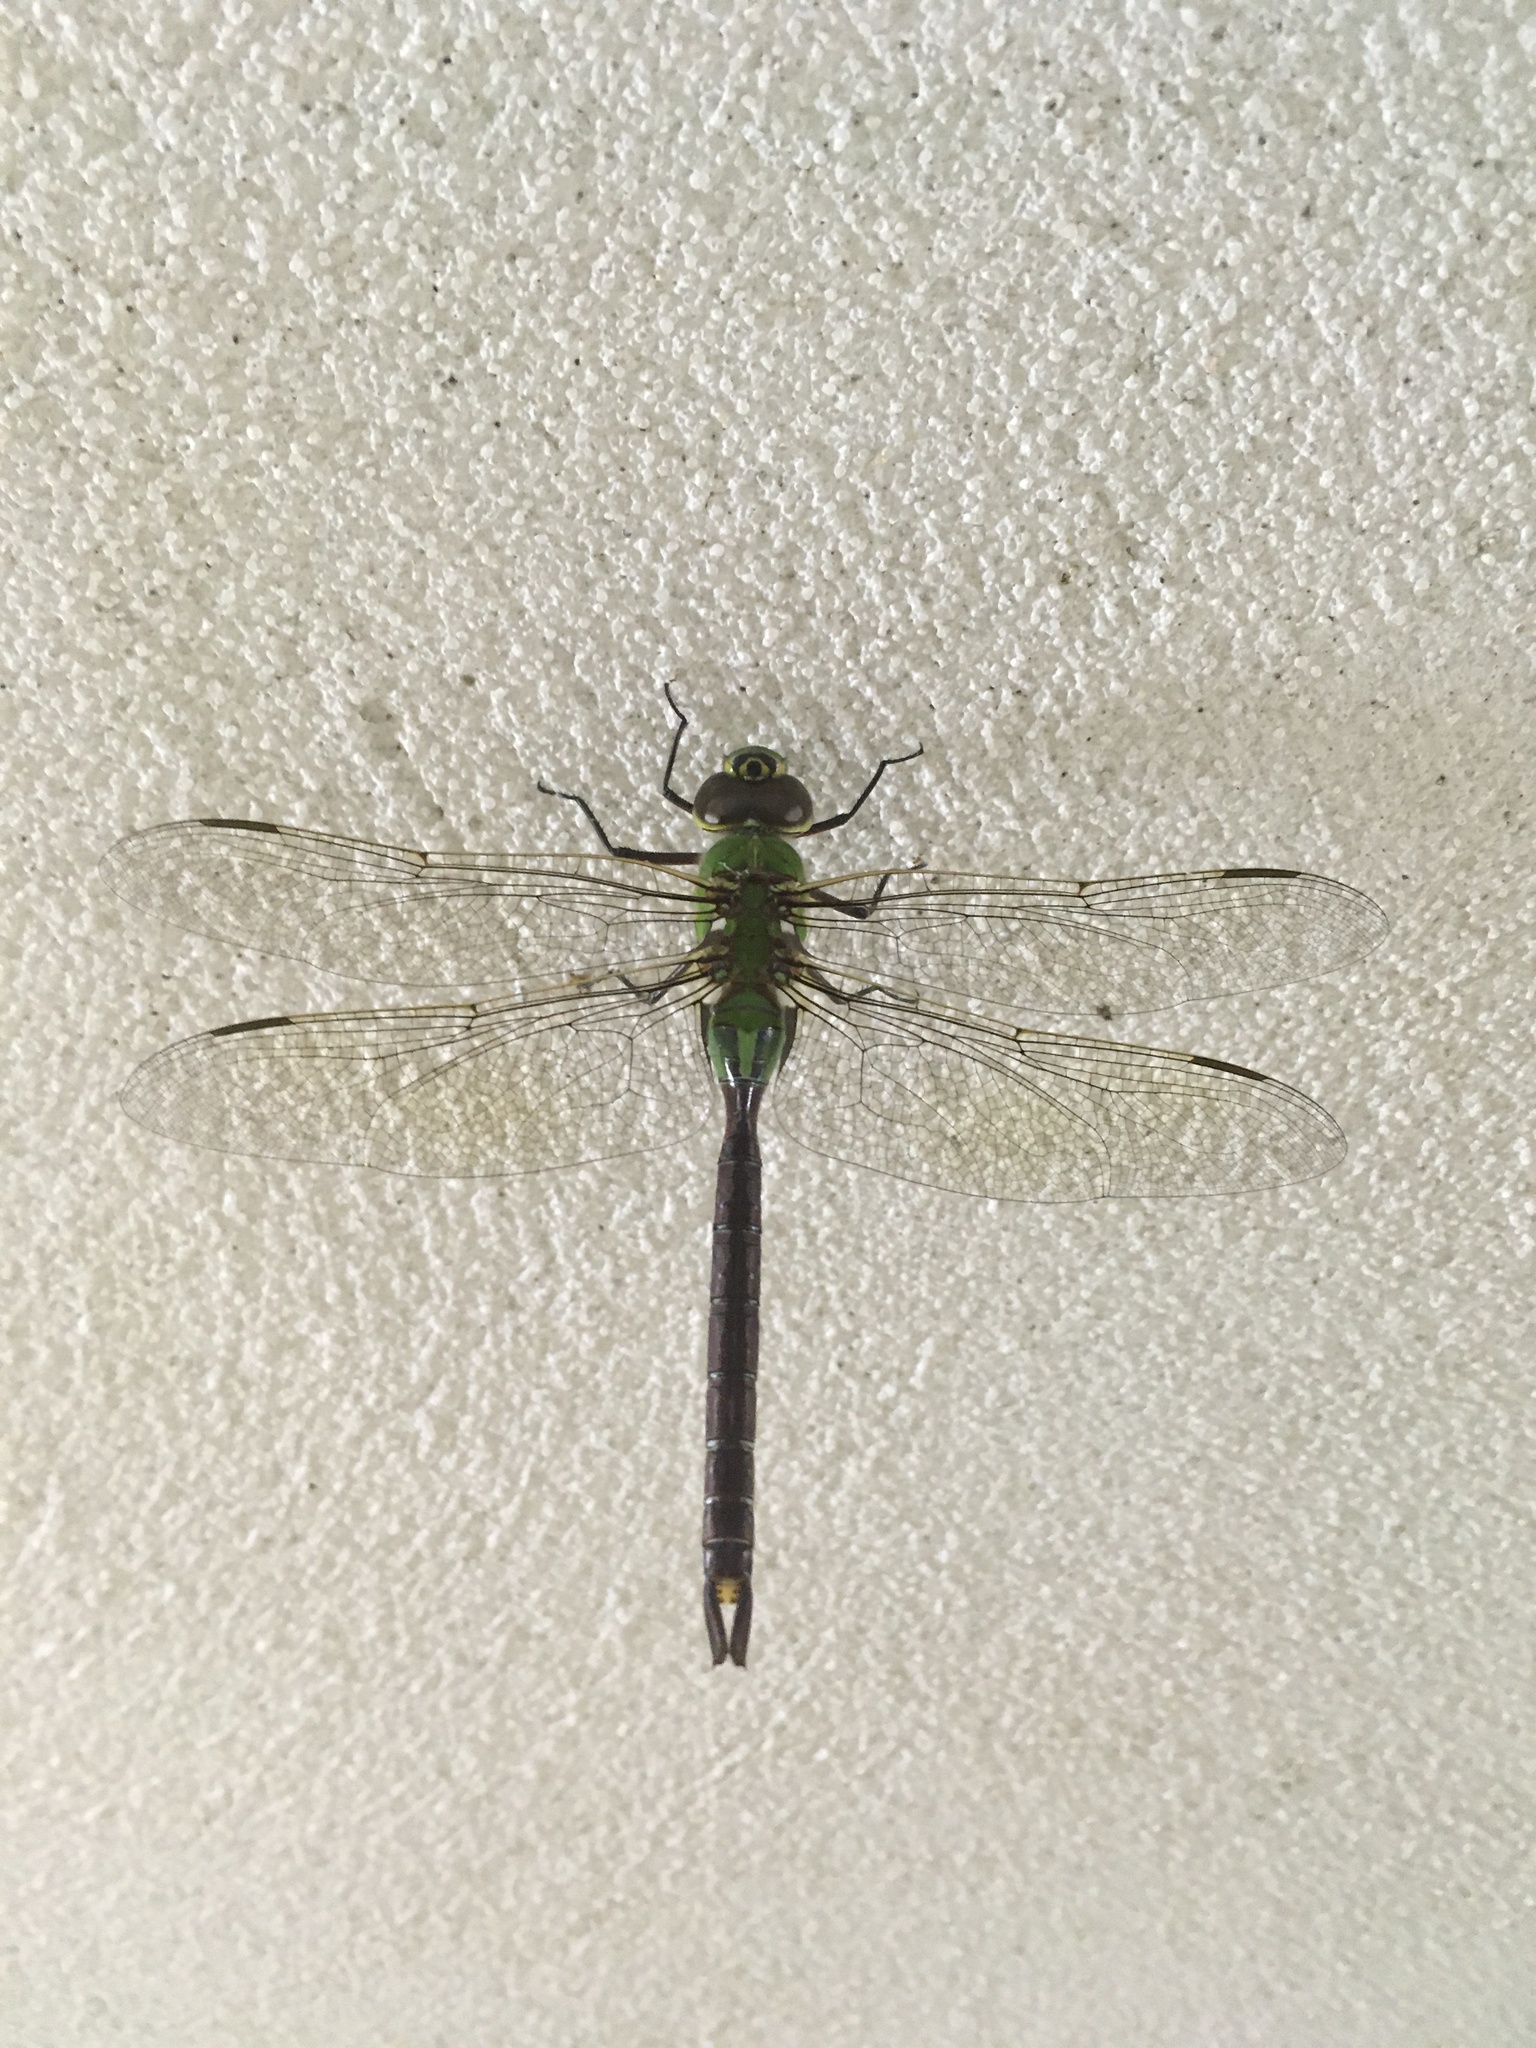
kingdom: Animalia
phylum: Arthropoda
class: Insecta
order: Odonata
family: Aeshnidae
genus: Anax
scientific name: Anax junius
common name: Common green darner
